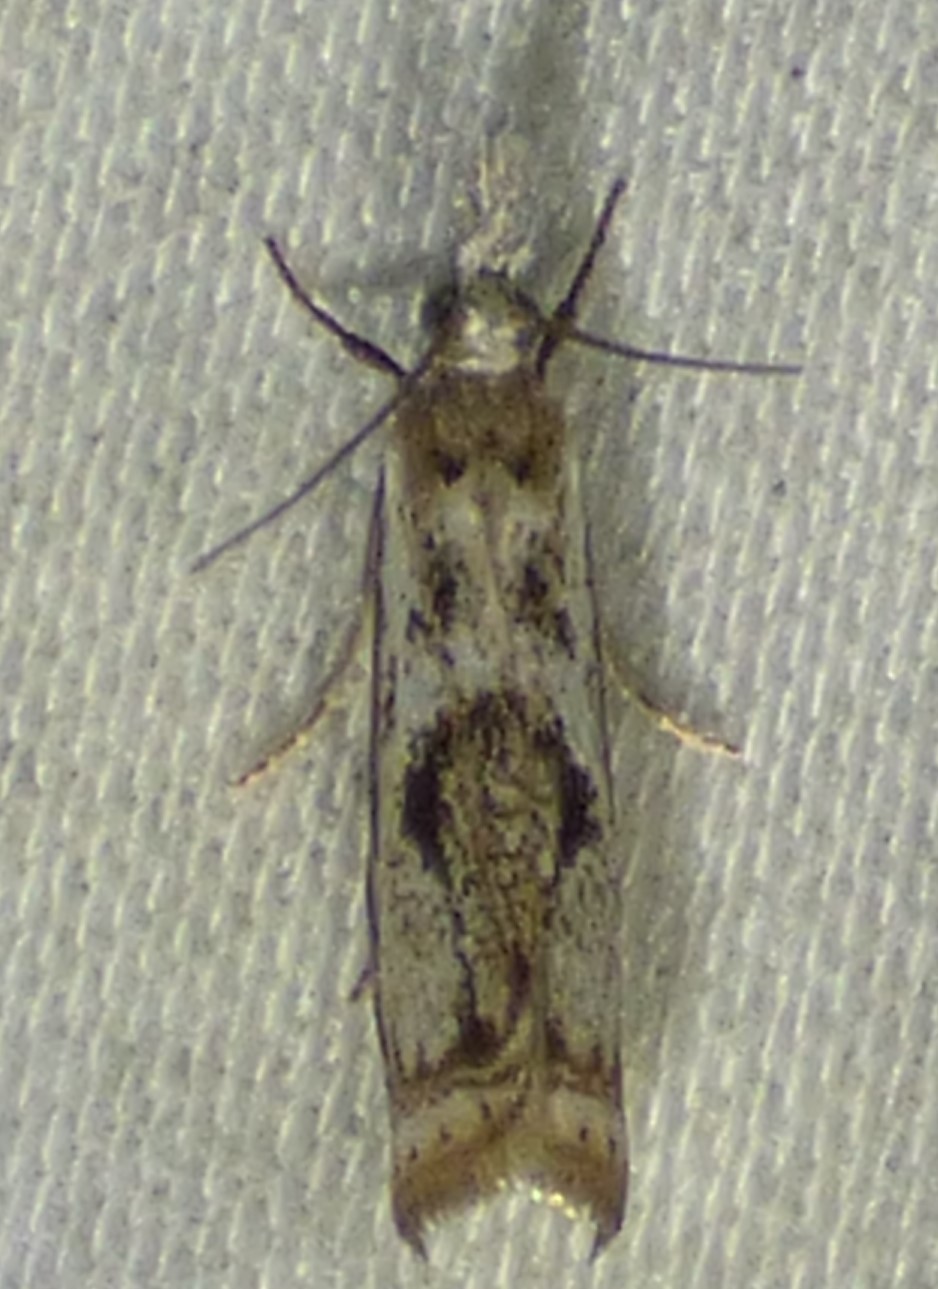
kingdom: Animalia
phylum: Arthropoda
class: Insecta
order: Lepidoptera
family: Crambidae
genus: Microcrambus
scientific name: Microcrambus elegans
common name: Elegant grass-veneer
